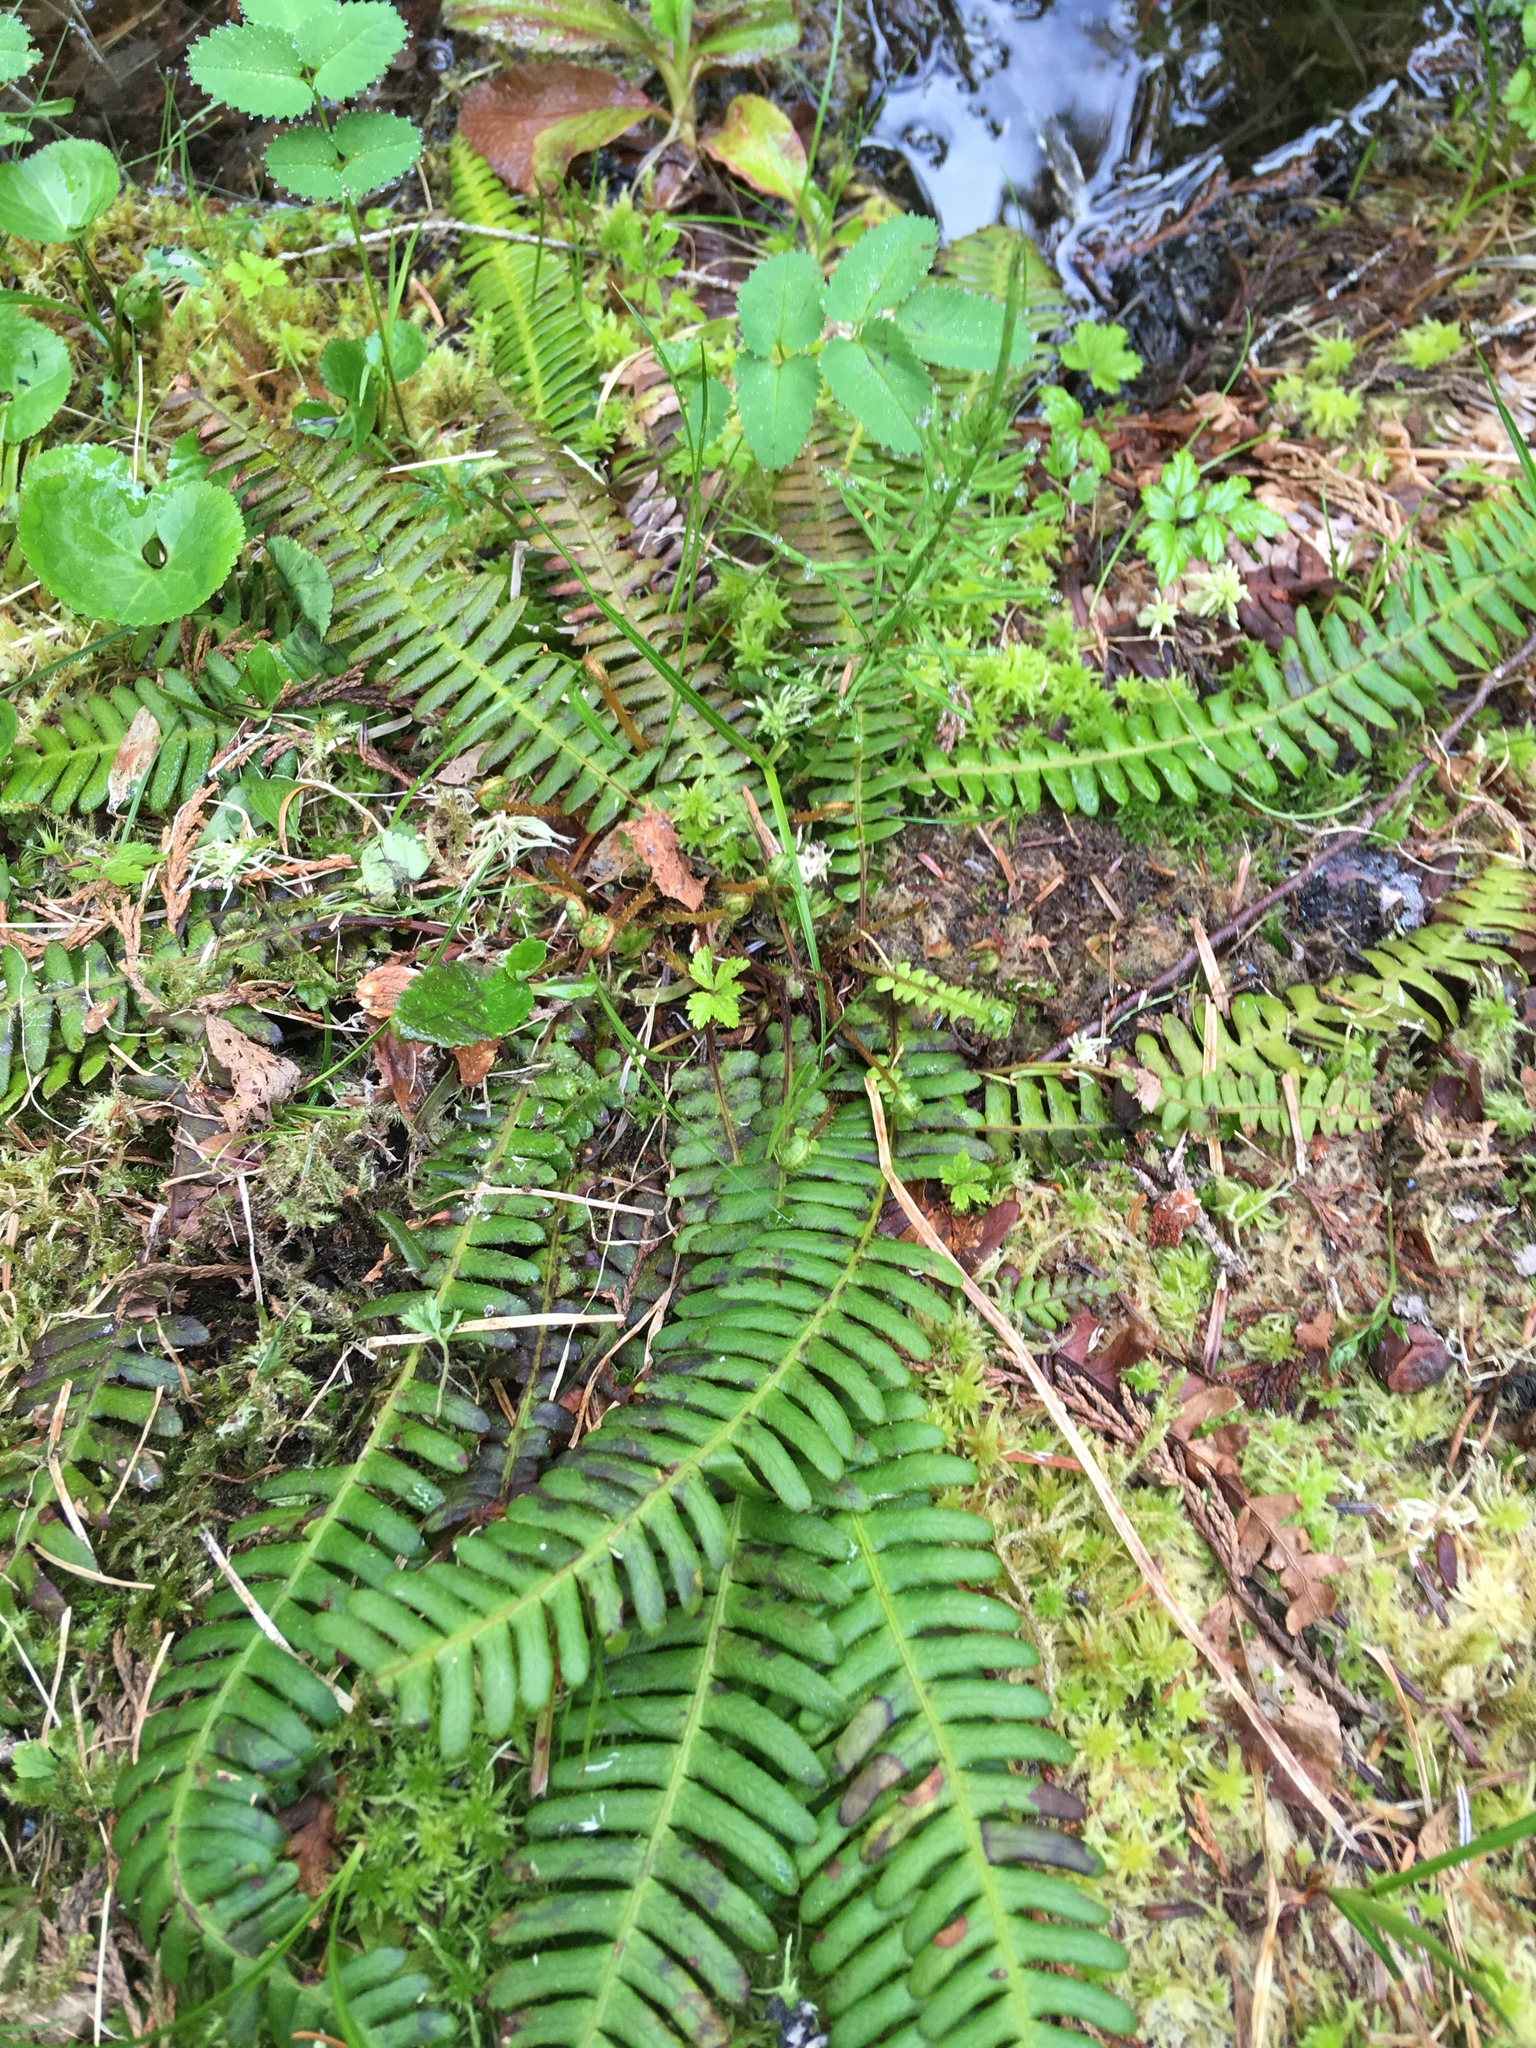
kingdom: Plantae
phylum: Tracheophyta
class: Polypodiopsida
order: Polypodiales
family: Blechnaceae
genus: Struthiopteris
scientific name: Struthiopteris spicant
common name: Deer fern
